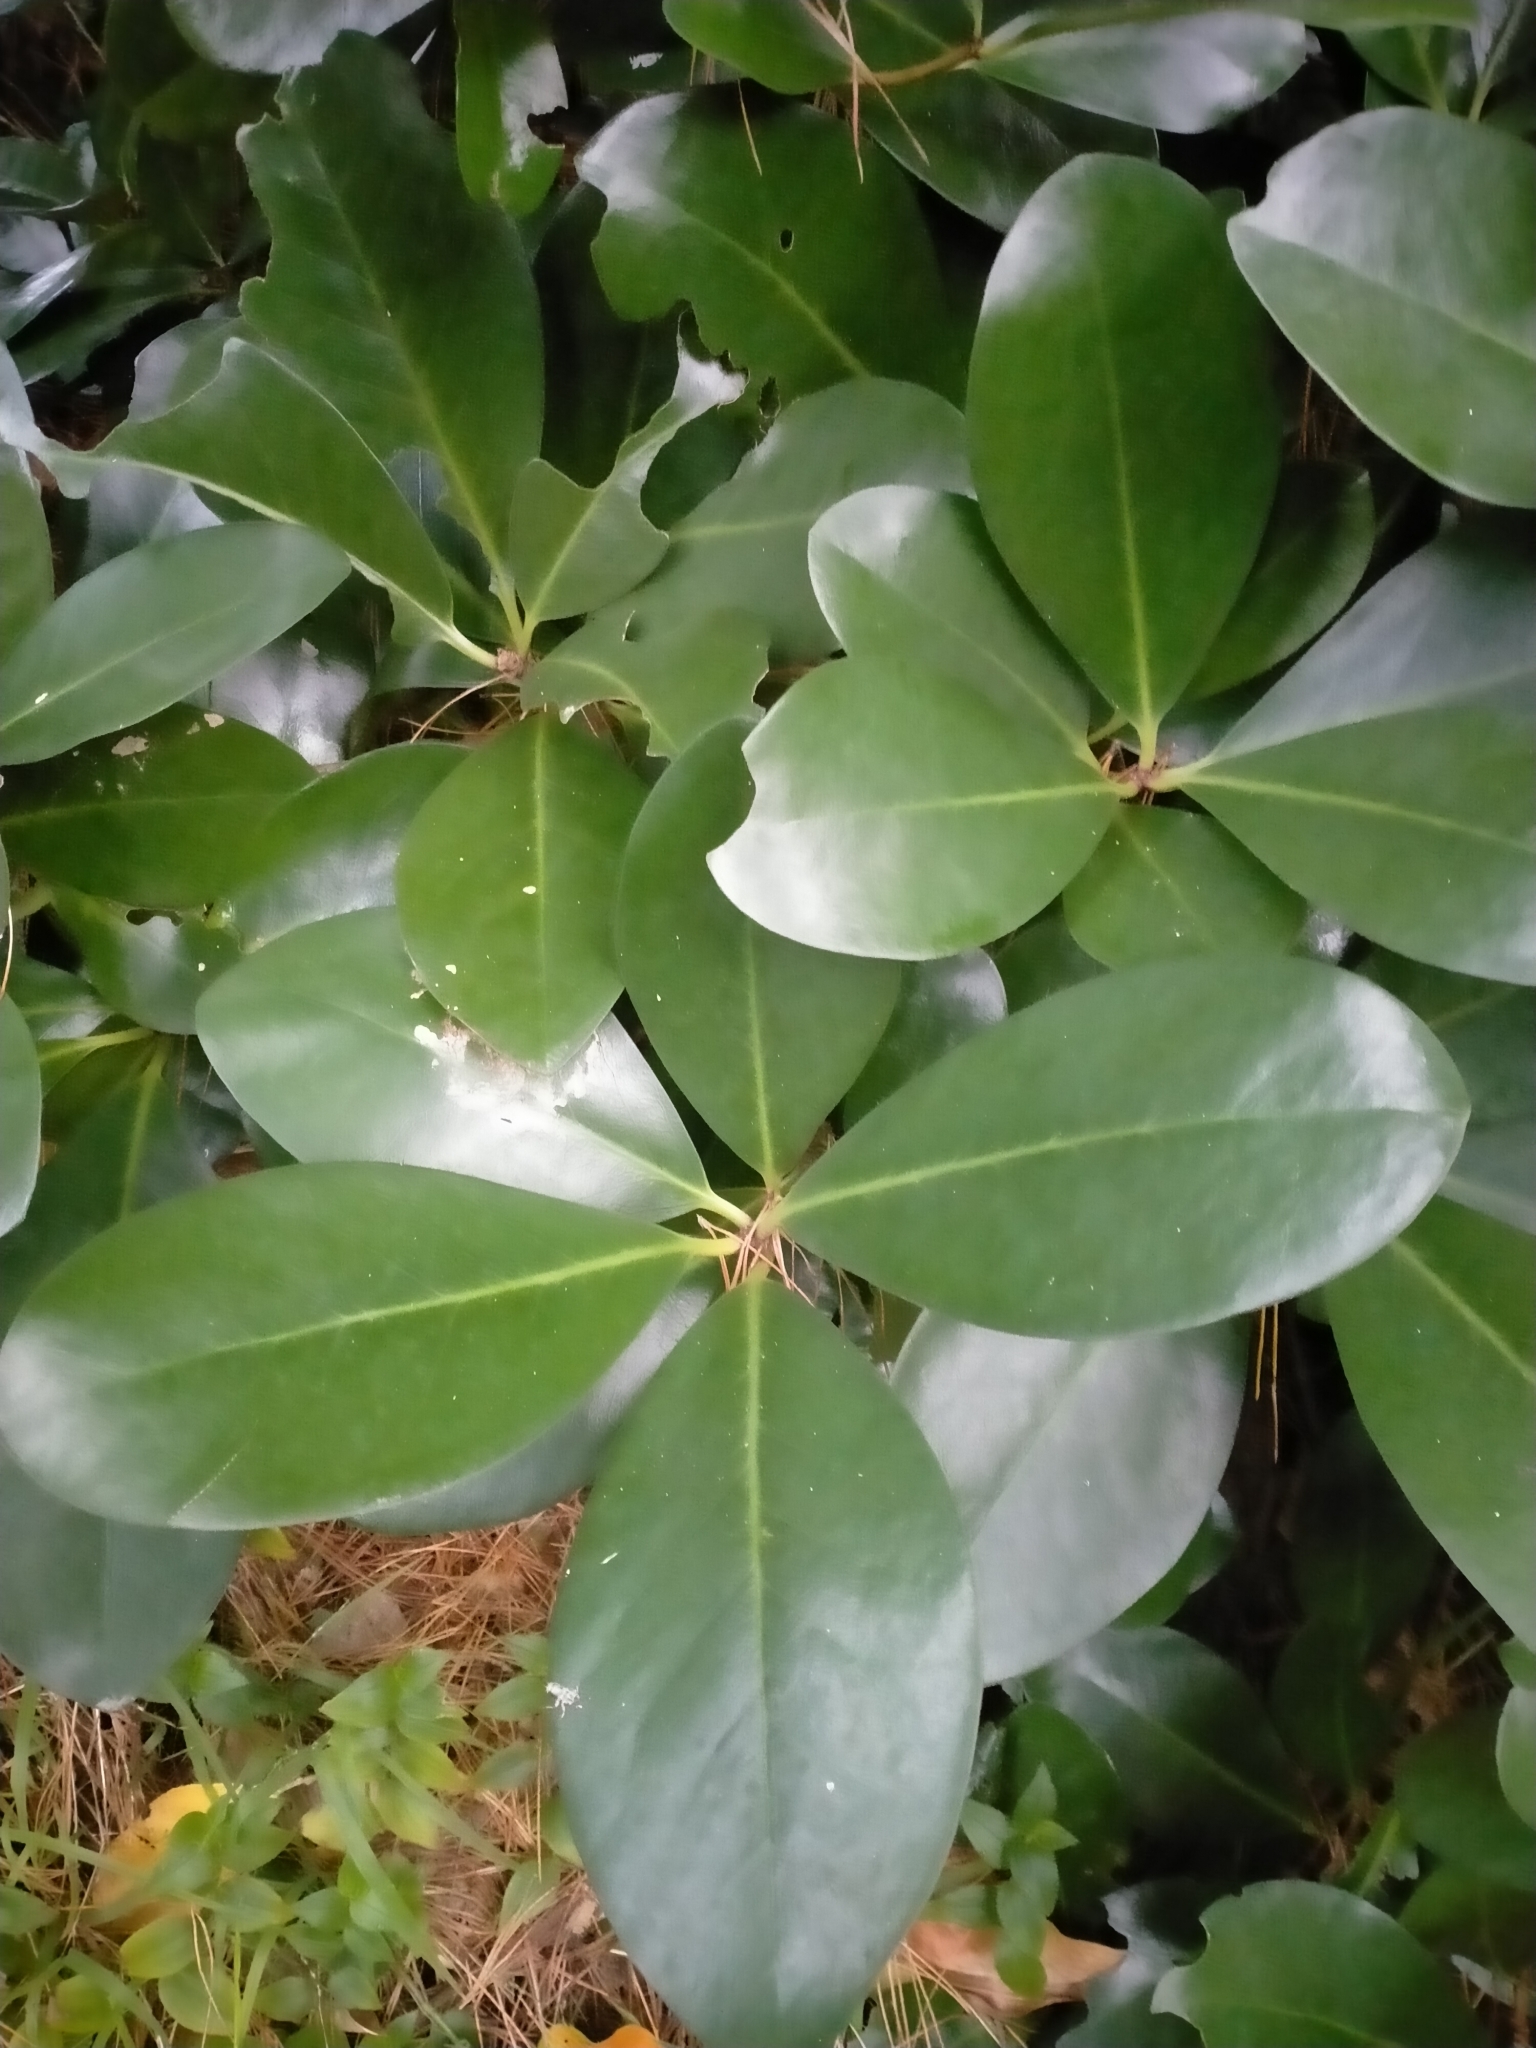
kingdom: Plantae
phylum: Tracheophyta
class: Magnoliopsida
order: Cucurbitales
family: Corynocarpaceae
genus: Corynocarpus
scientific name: Corynocarpus laevigatus
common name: New zealand laurel
